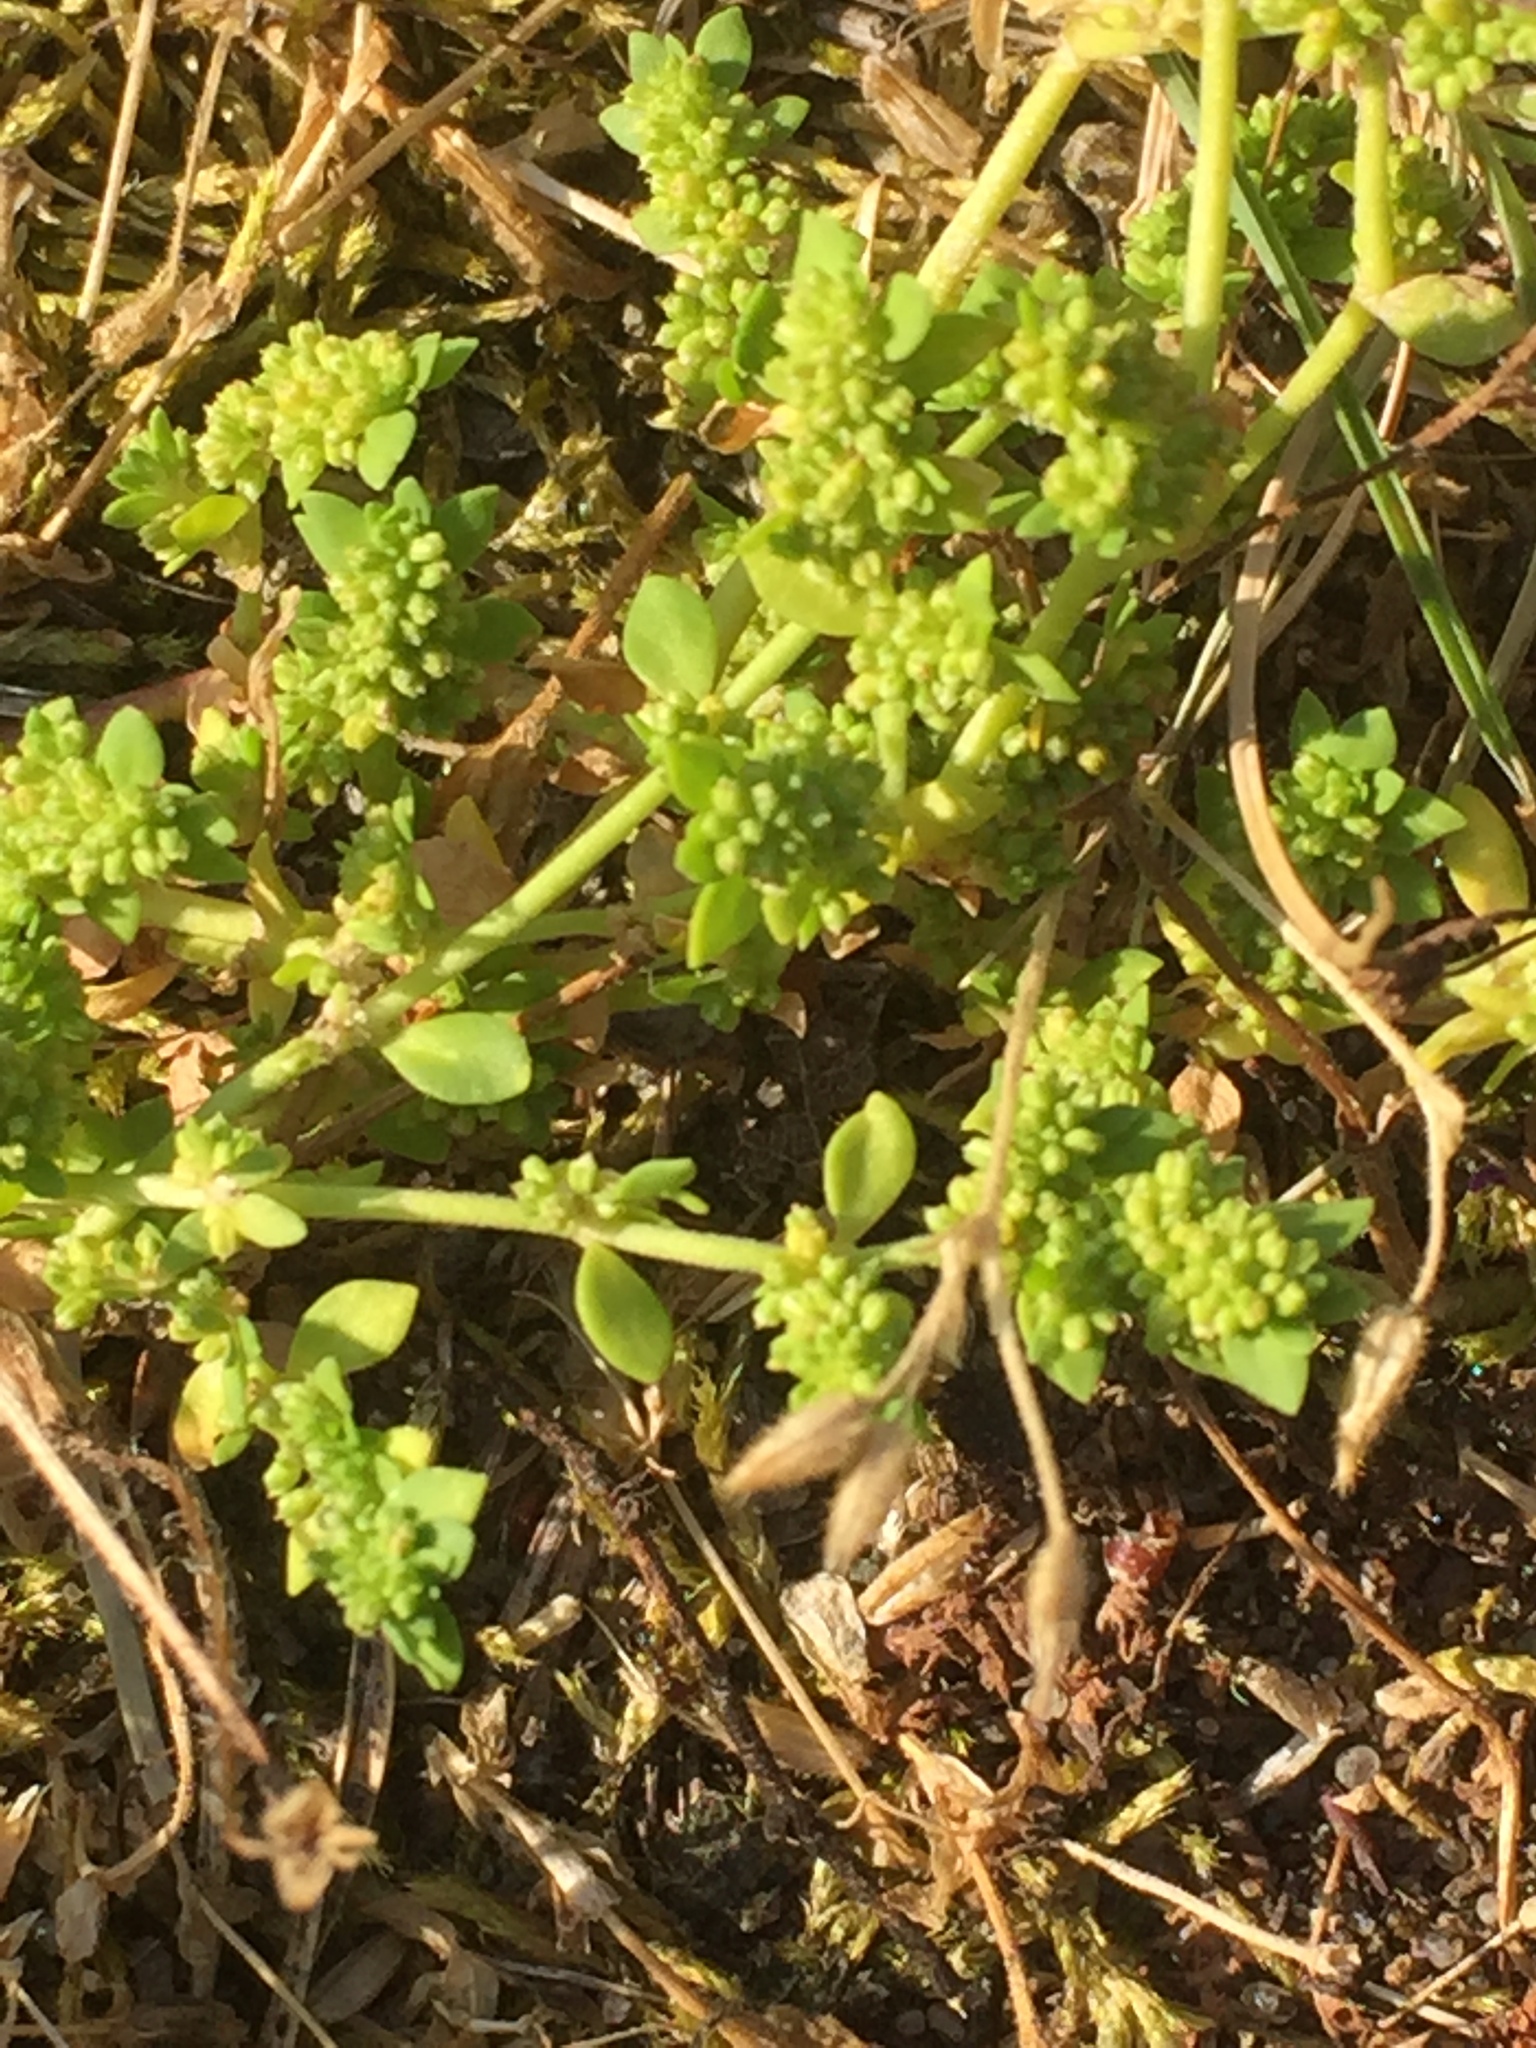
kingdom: Plantae
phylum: Tracheophyta
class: Magnoliopsida
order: Caryophyllales
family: Caryophyllaceae
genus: Herniaria
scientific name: Herniaria glabra
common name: Smooth rupturewort
